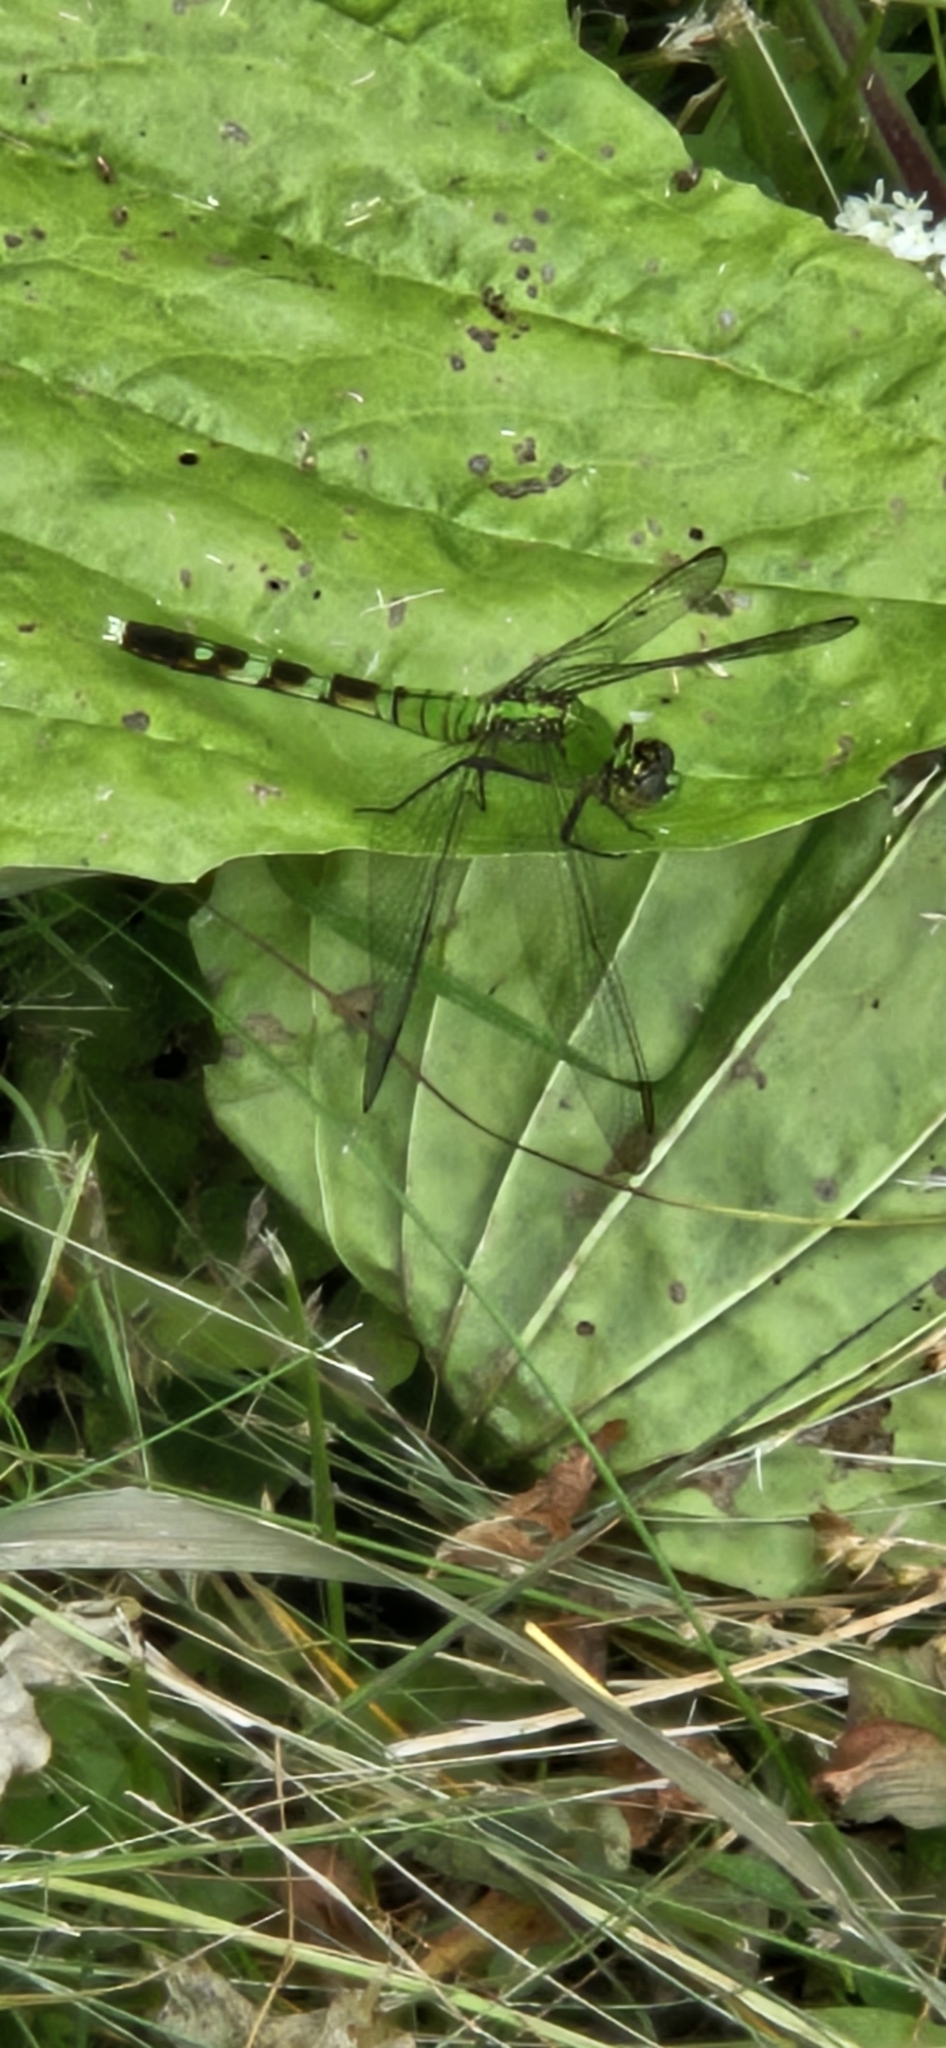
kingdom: Animalia
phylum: Arthropoda
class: Insecta
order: Odonata
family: Libellulidae
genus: Erythemis
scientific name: Erythemis simplicicollis
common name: Eastern pondhawk
